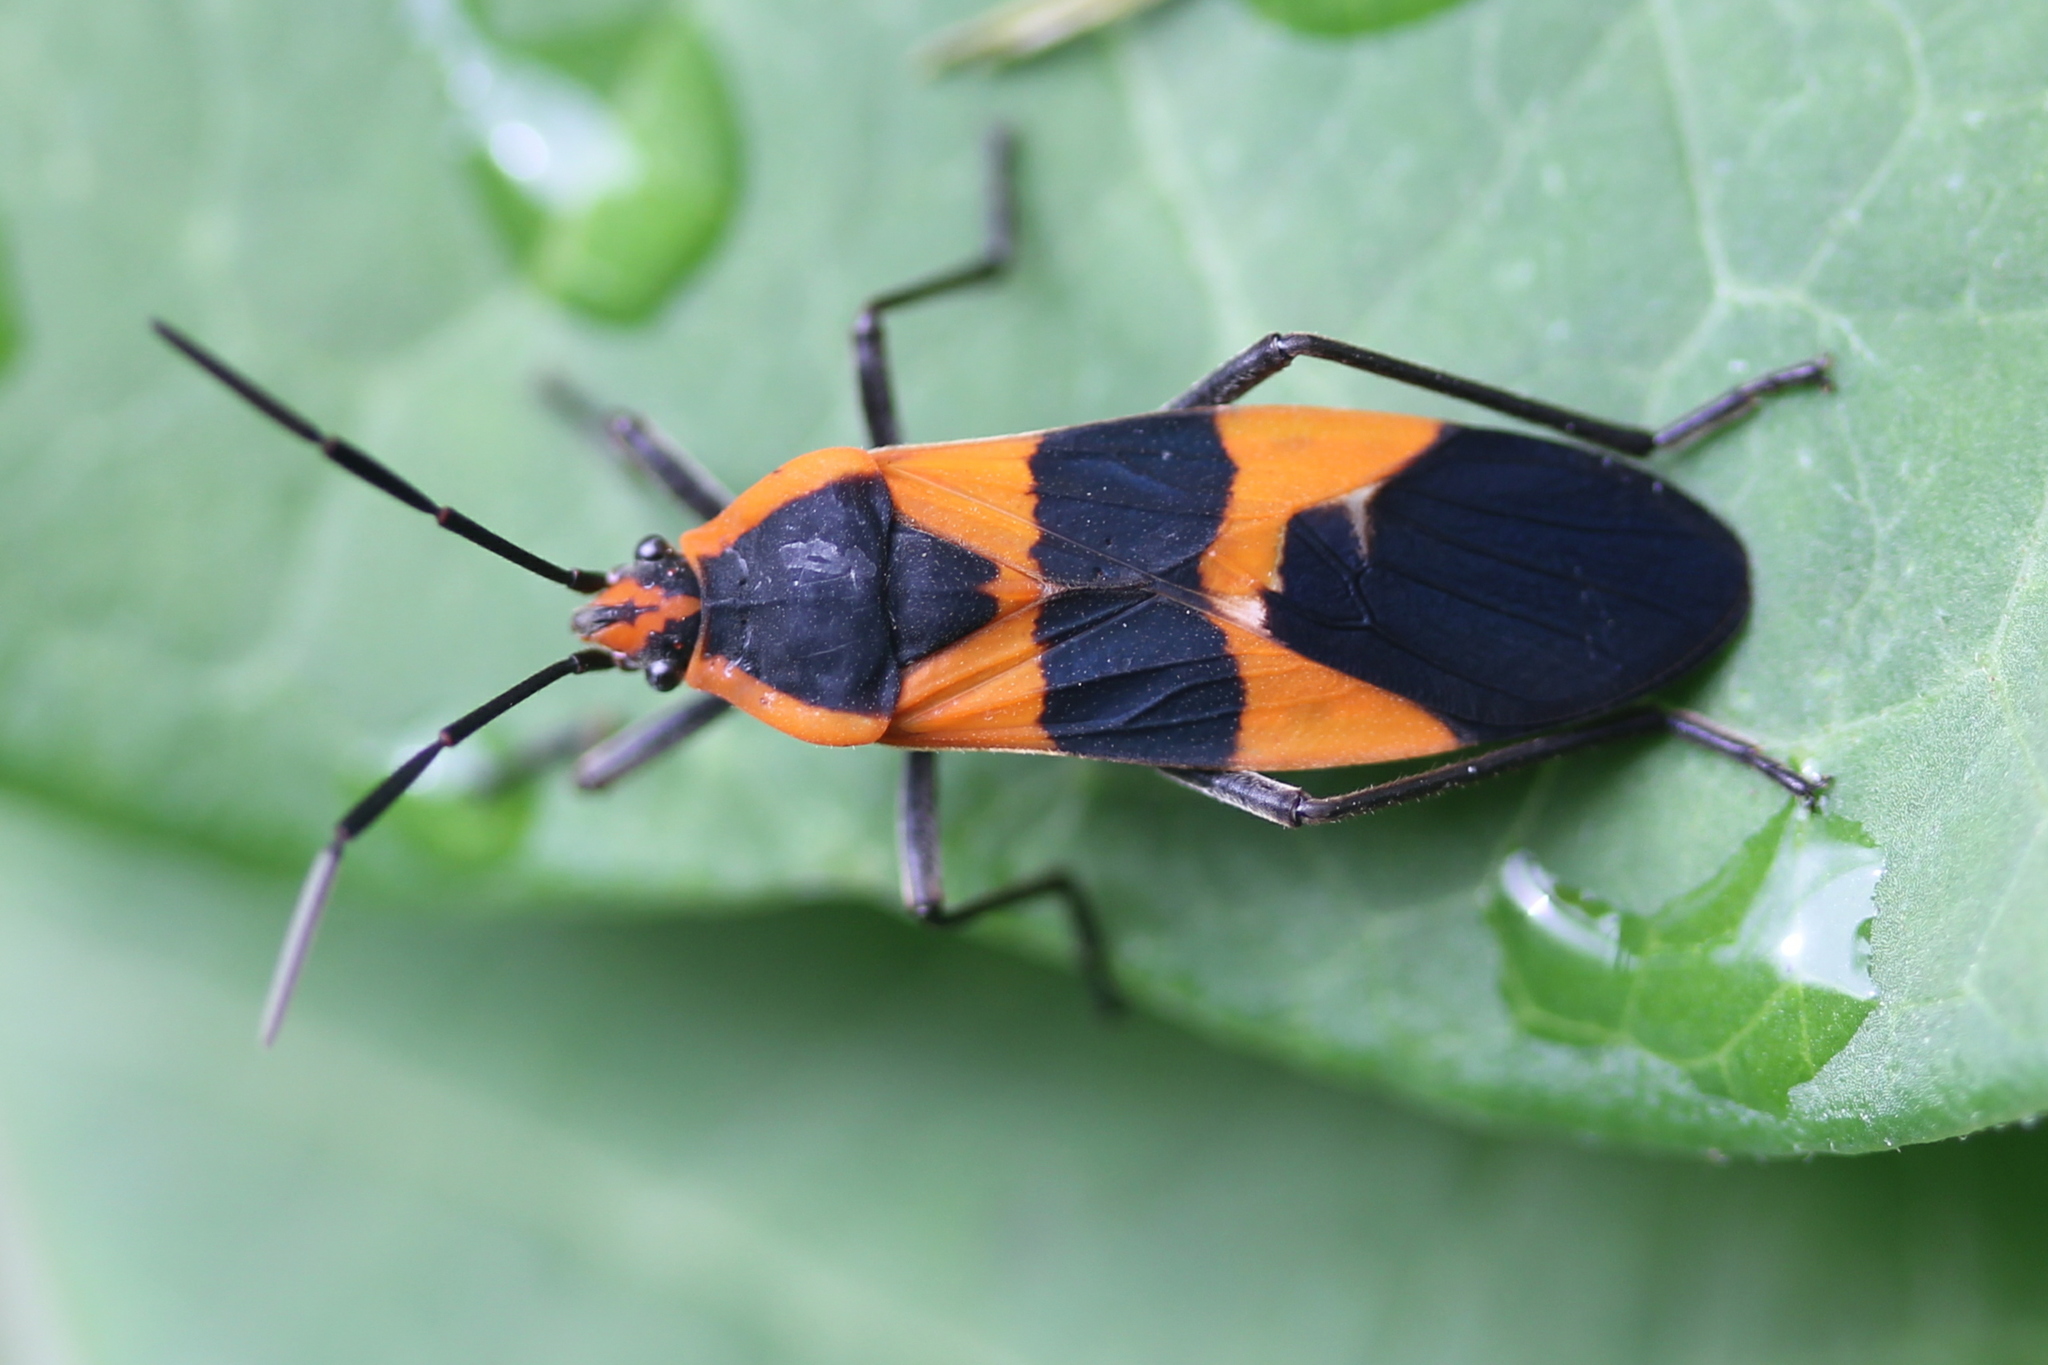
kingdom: Animalia
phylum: Arthropoda
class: Insecta
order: Hemiptera
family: Lygaeidae
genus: Oncopeltus
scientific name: Oncopeltus fasciatus
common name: Large milkweed bug
